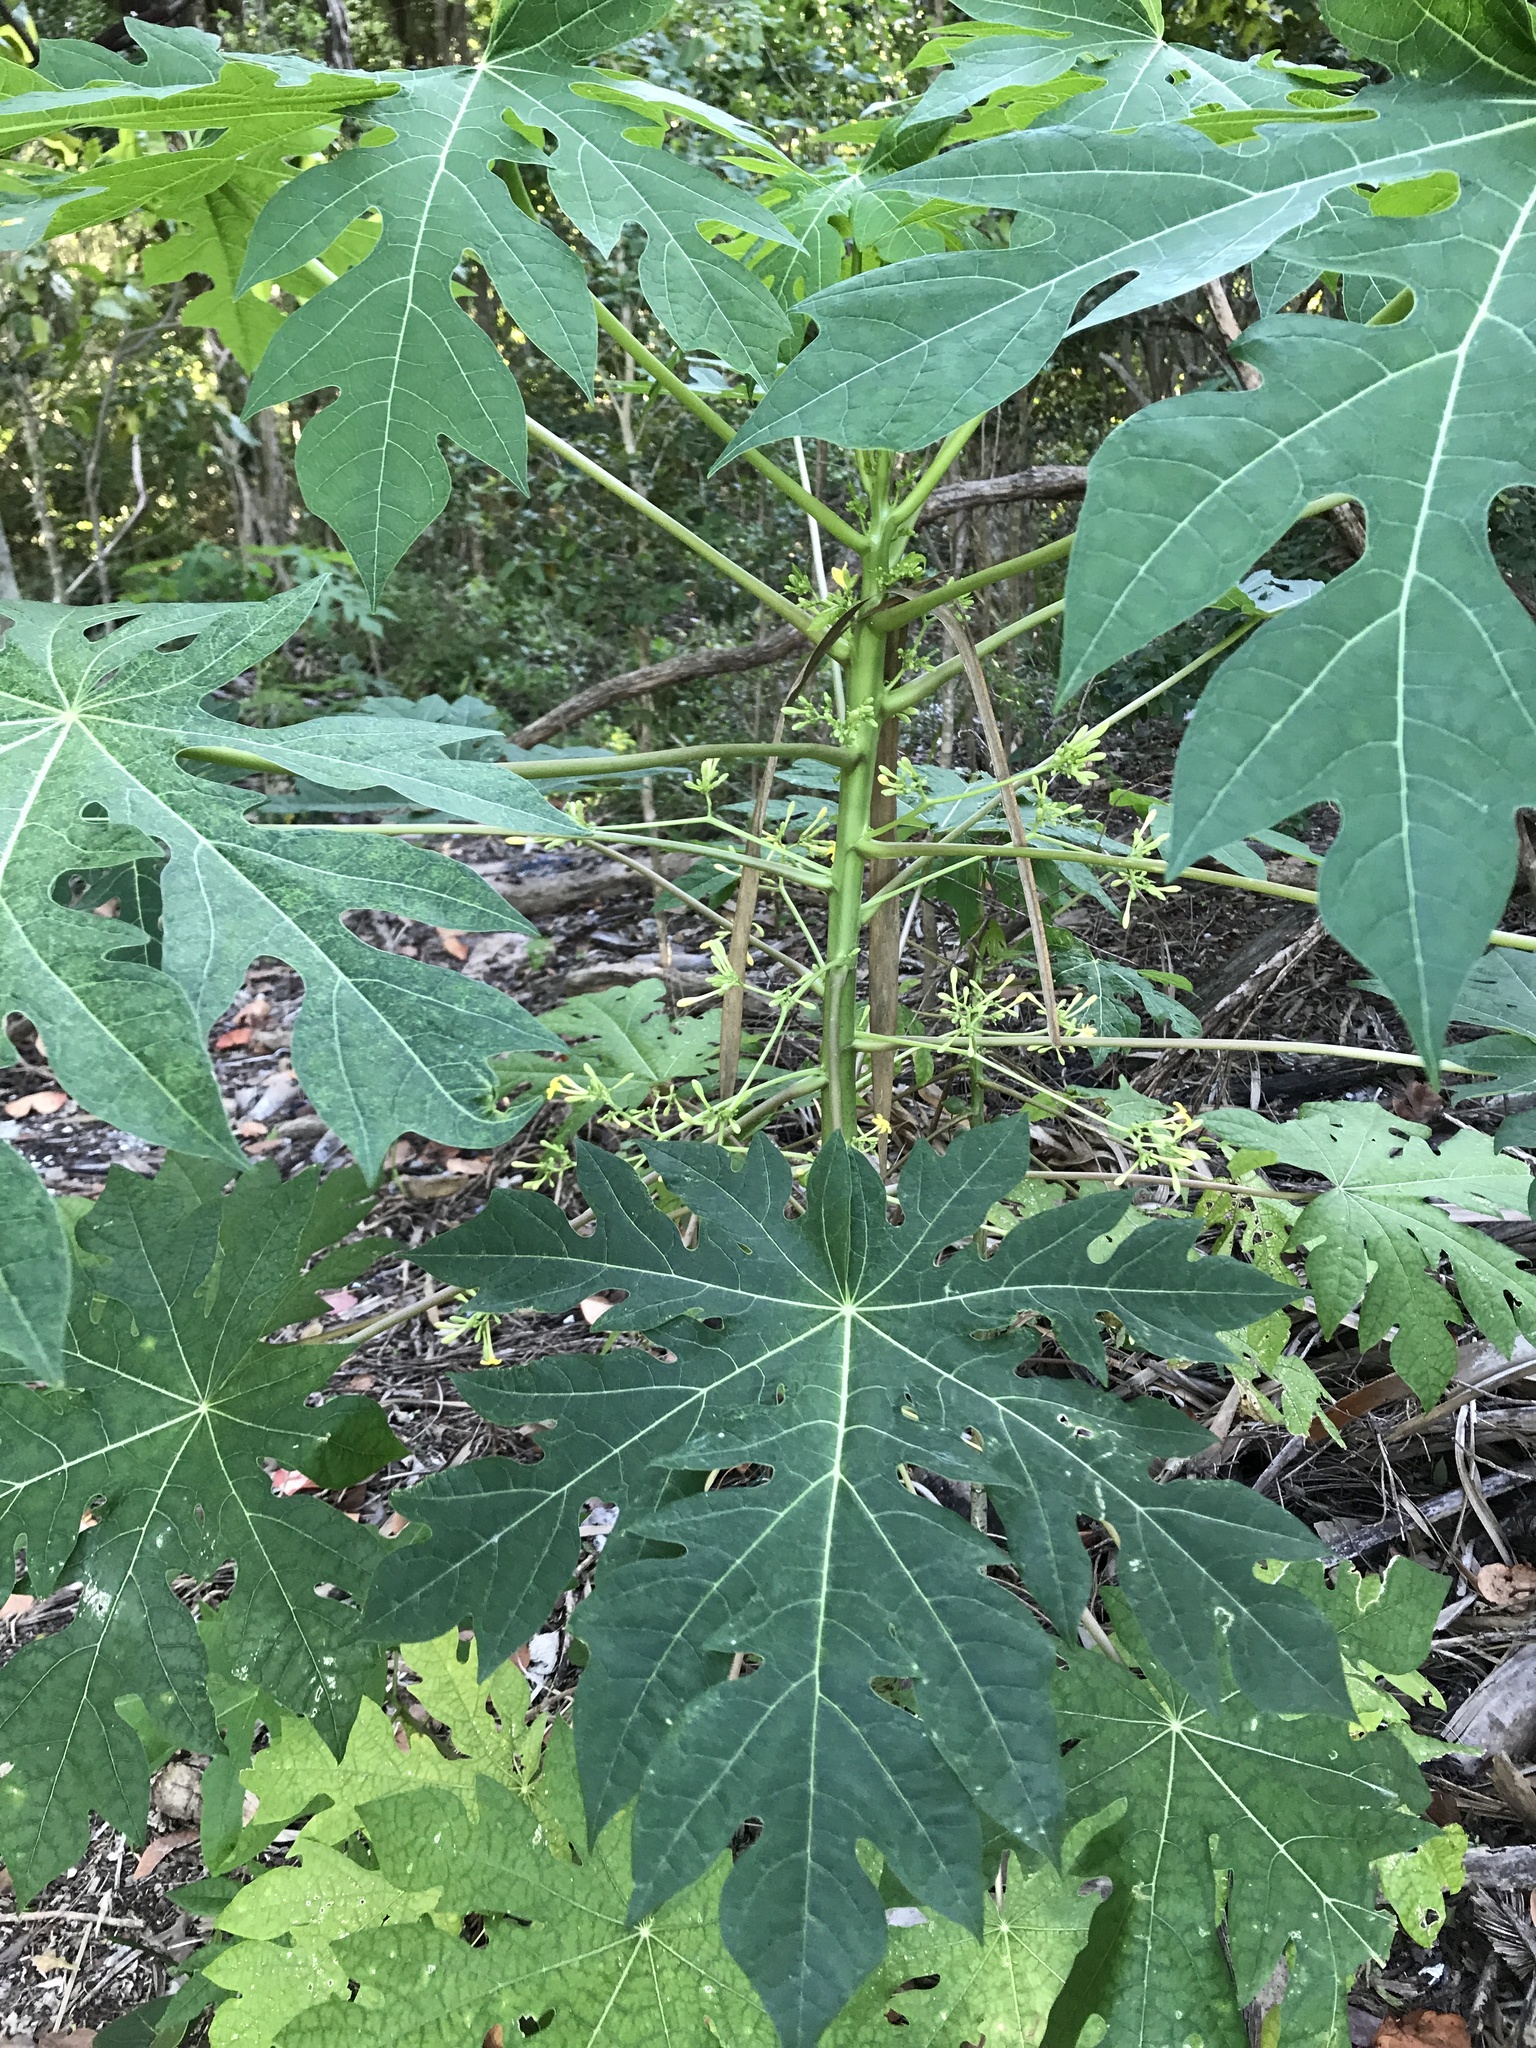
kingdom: Plantae
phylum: Tracheophyta
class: Magnoliopsida
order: Brassicales
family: Caricaceae
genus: Carica
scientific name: Carica papaya
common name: Papaya
